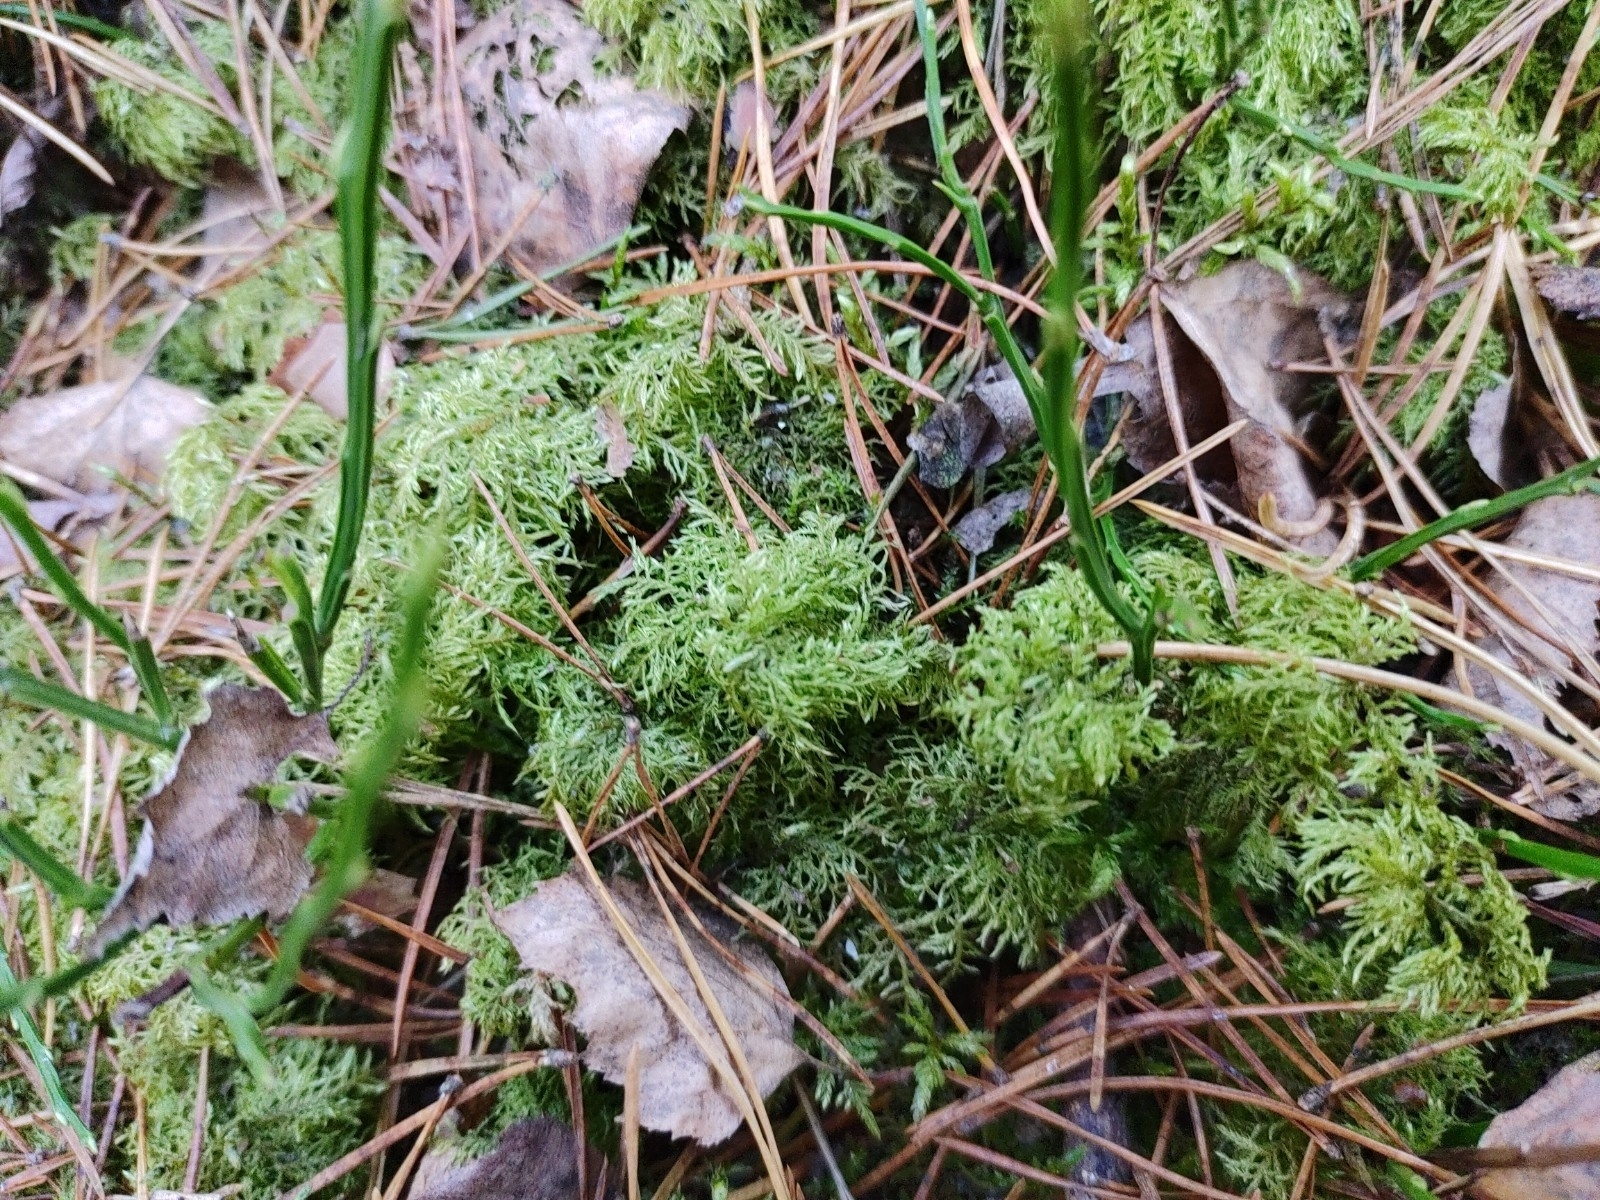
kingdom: Plantae
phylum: Bryophyta
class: Bryopsida
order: Hypnales
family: Hylocomiaceae
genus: Hylocomium
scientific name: Hylocomium splendens
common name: Stairstep moss
